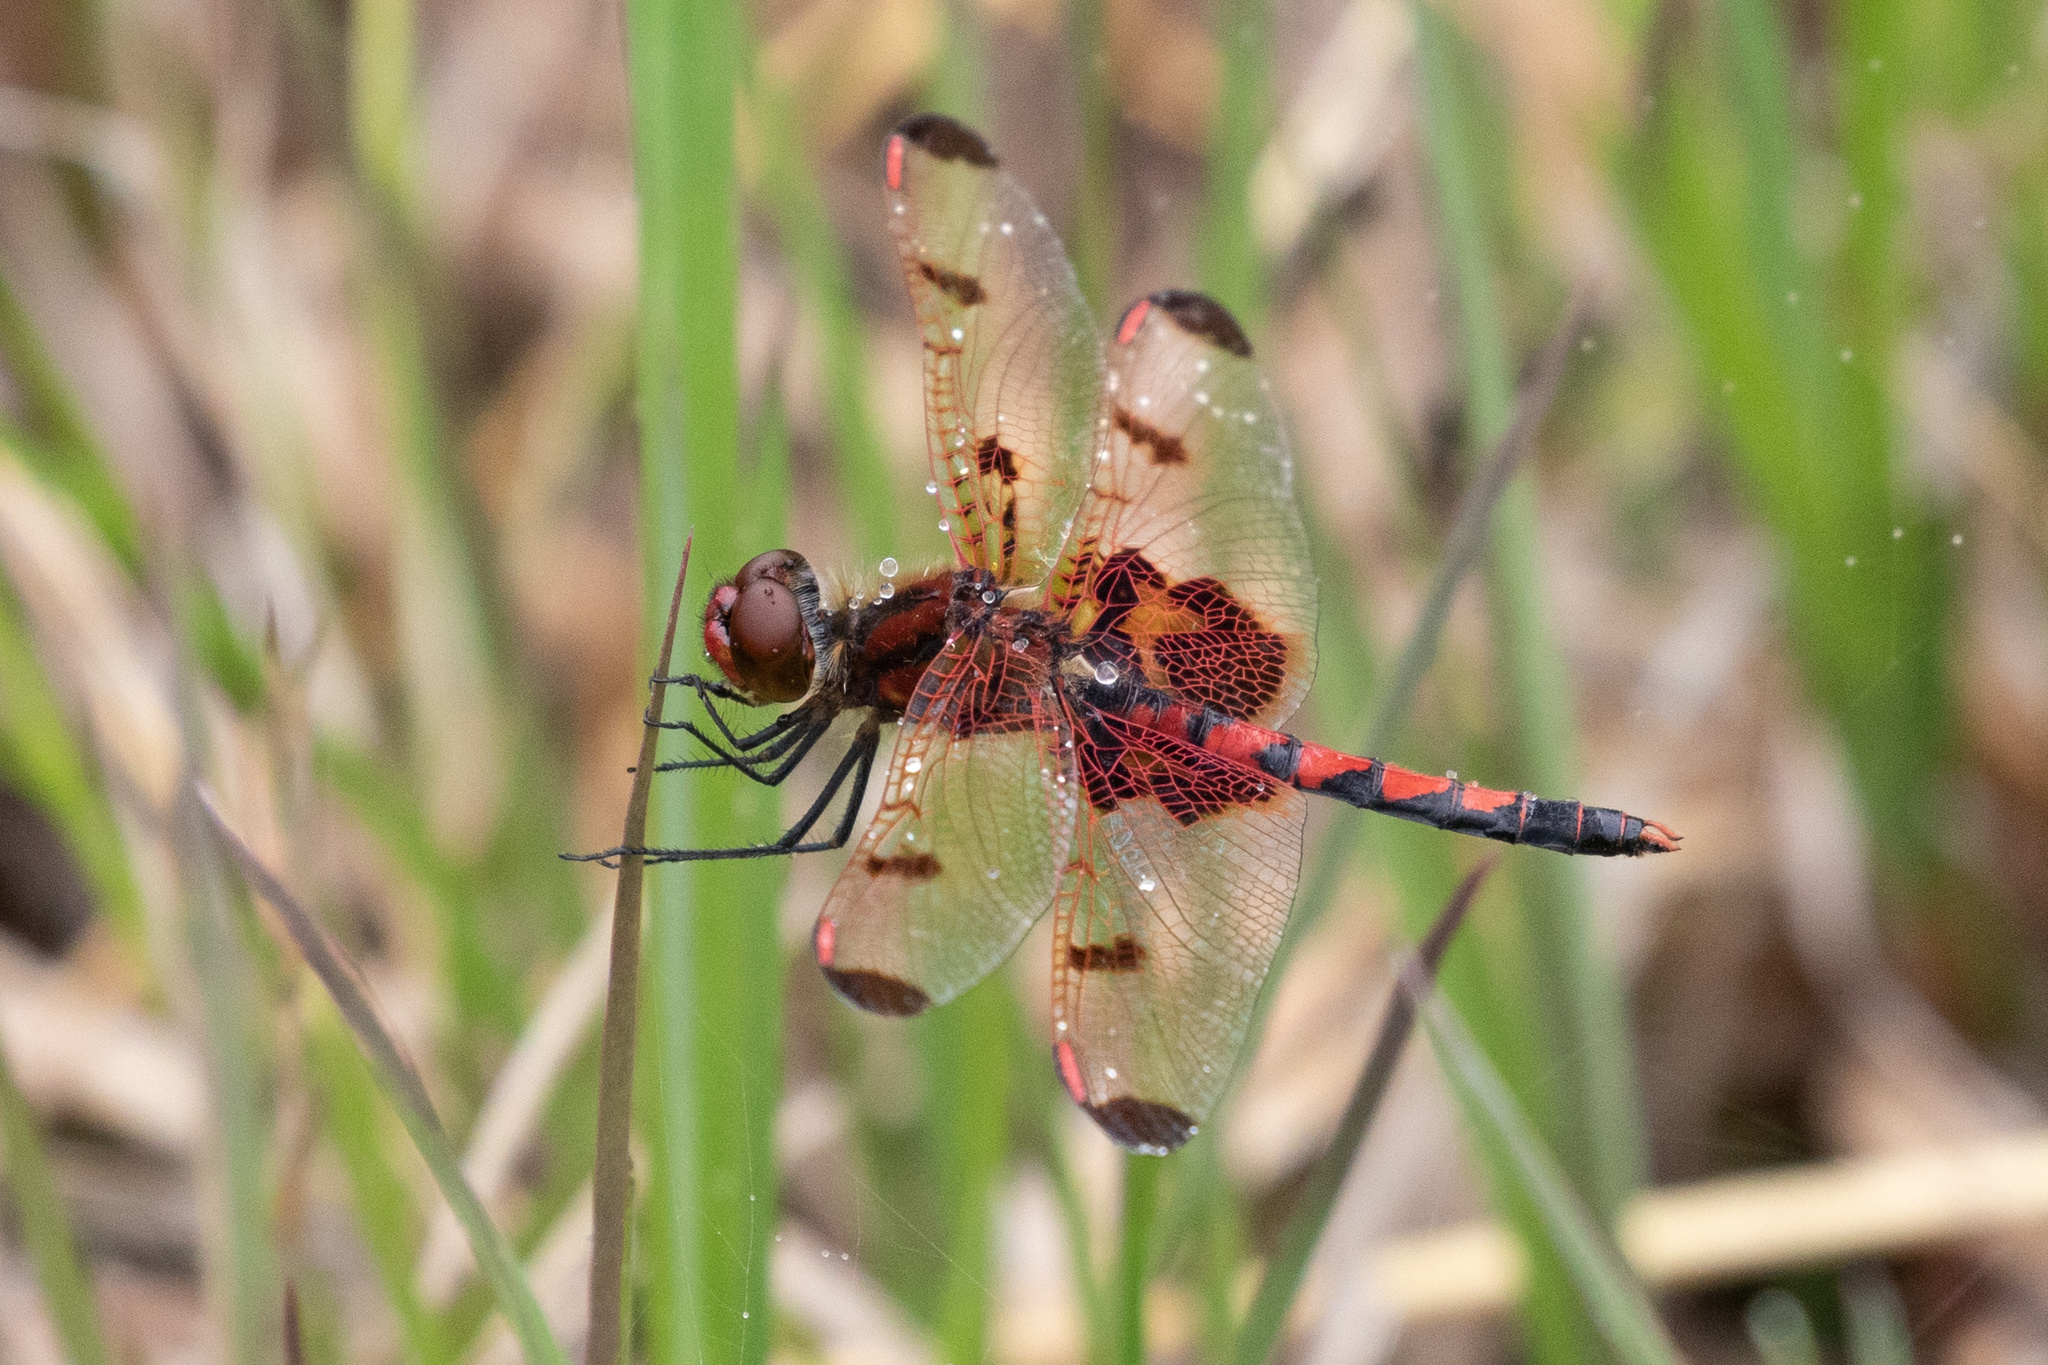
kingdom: Animalia
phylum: Arthropoda
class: Insecta
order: Odonata
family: Libellulidae
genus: Celithemis
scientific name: Celithemis elisa
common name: Calico pennant
